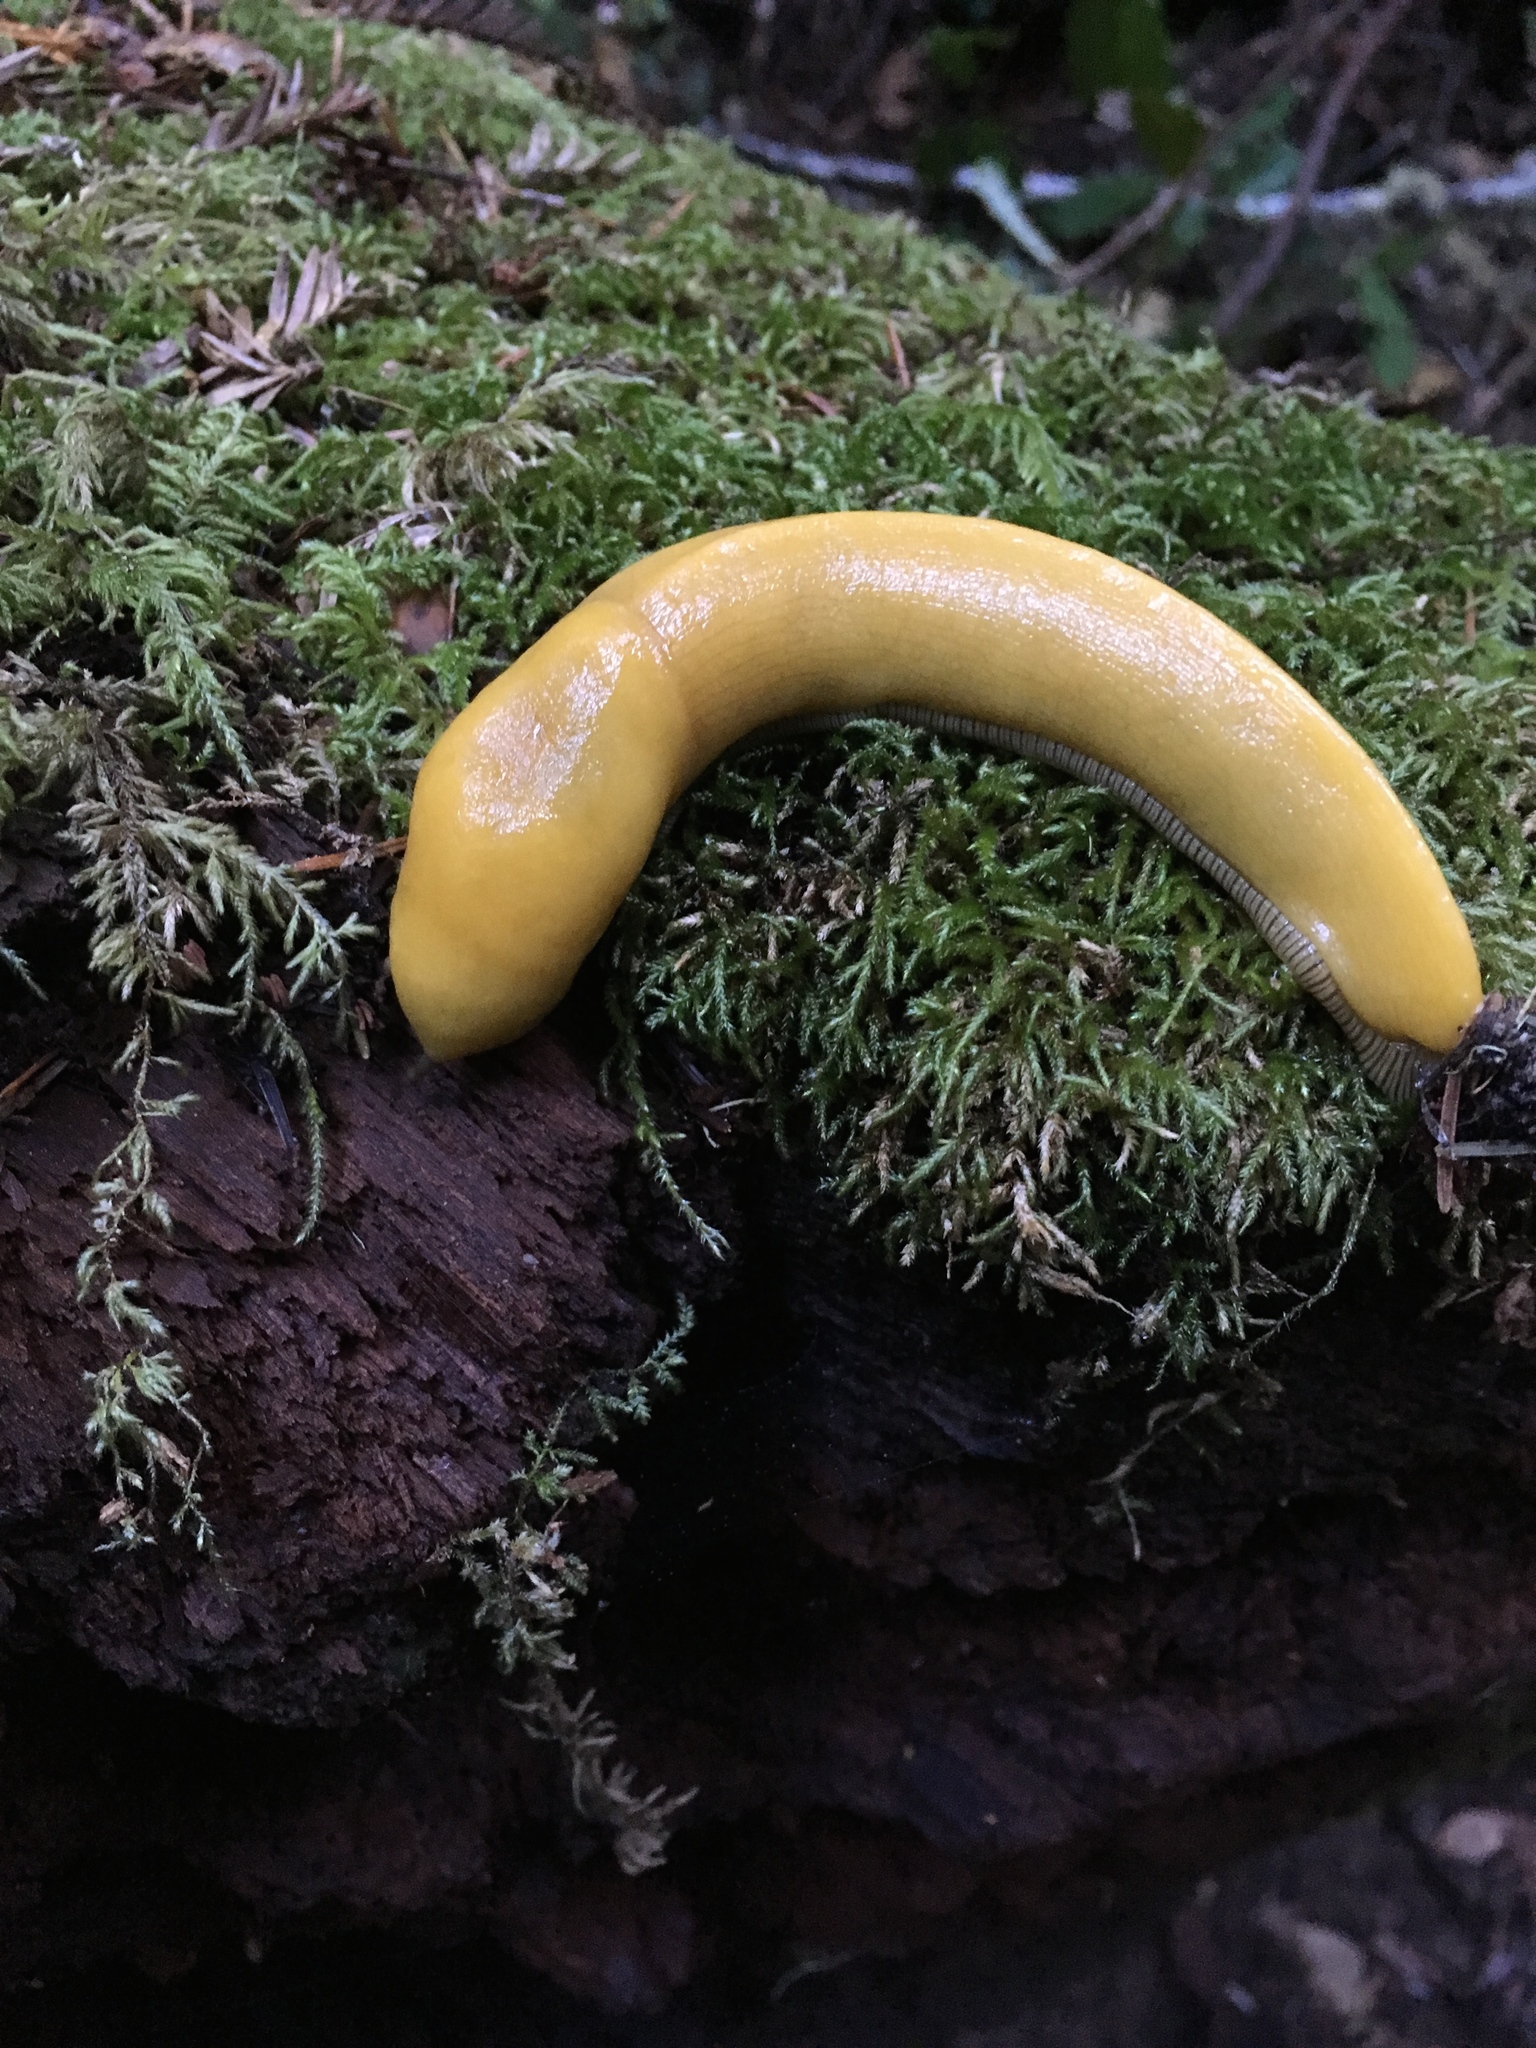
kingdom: Animalia
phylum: Mollusca
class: Gastropoda
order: Stylommatophora
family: Ariolimacidae
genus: Ariolimax
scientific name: Ariolimax californicus
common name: California banana slug
